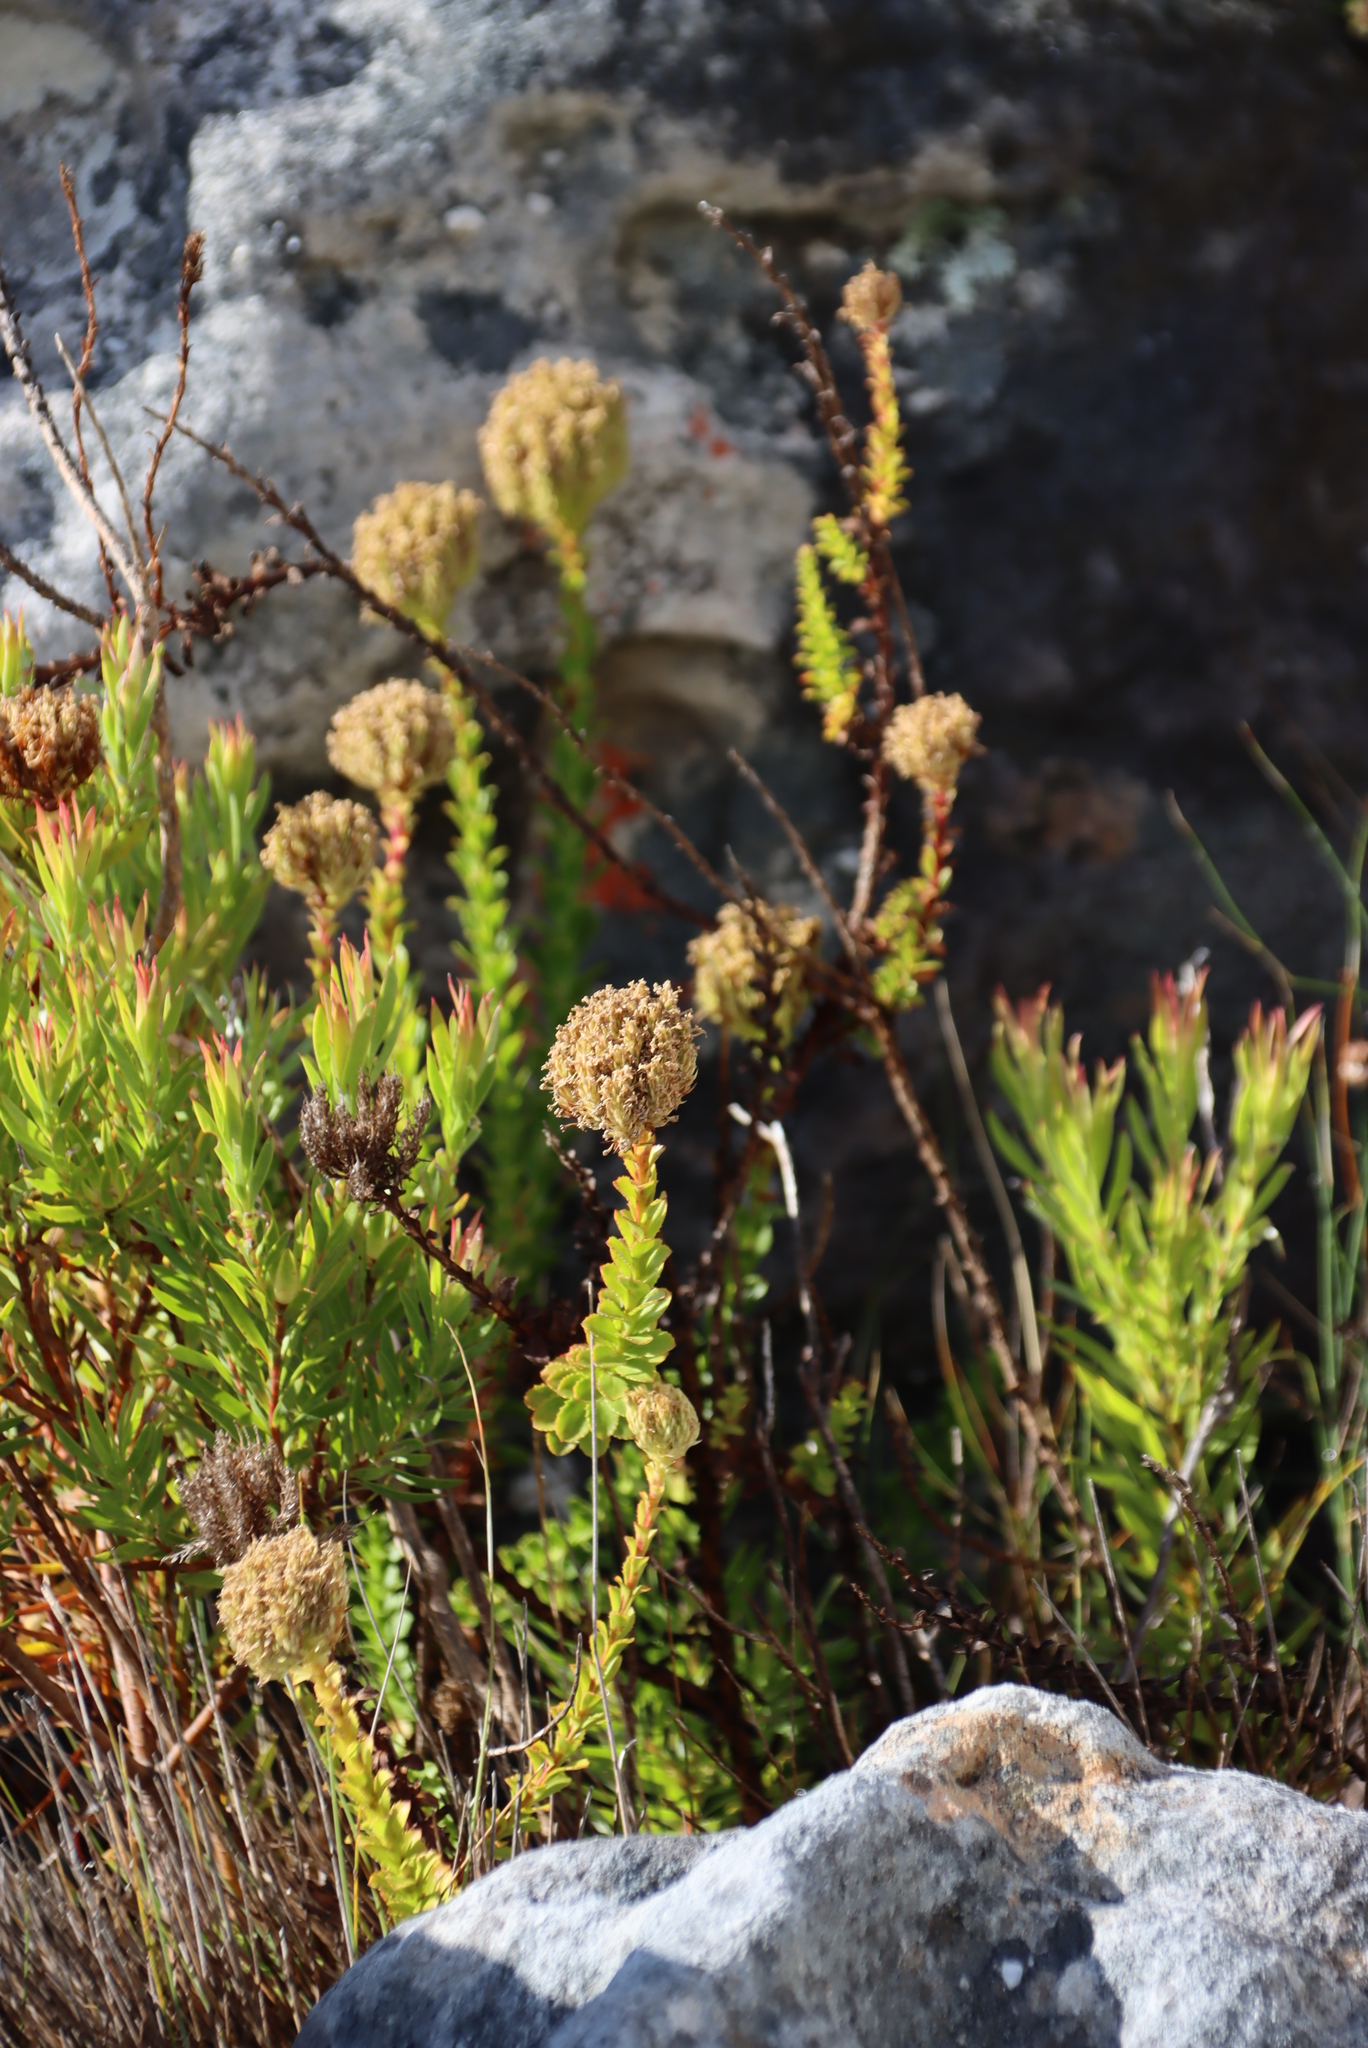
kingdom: Plantae
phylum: Tracheophyta
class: Magnoliopsida
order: Lamiales
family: Scrophulariaceae
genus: Pseudoselago
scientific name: Pseudoselago serrata
